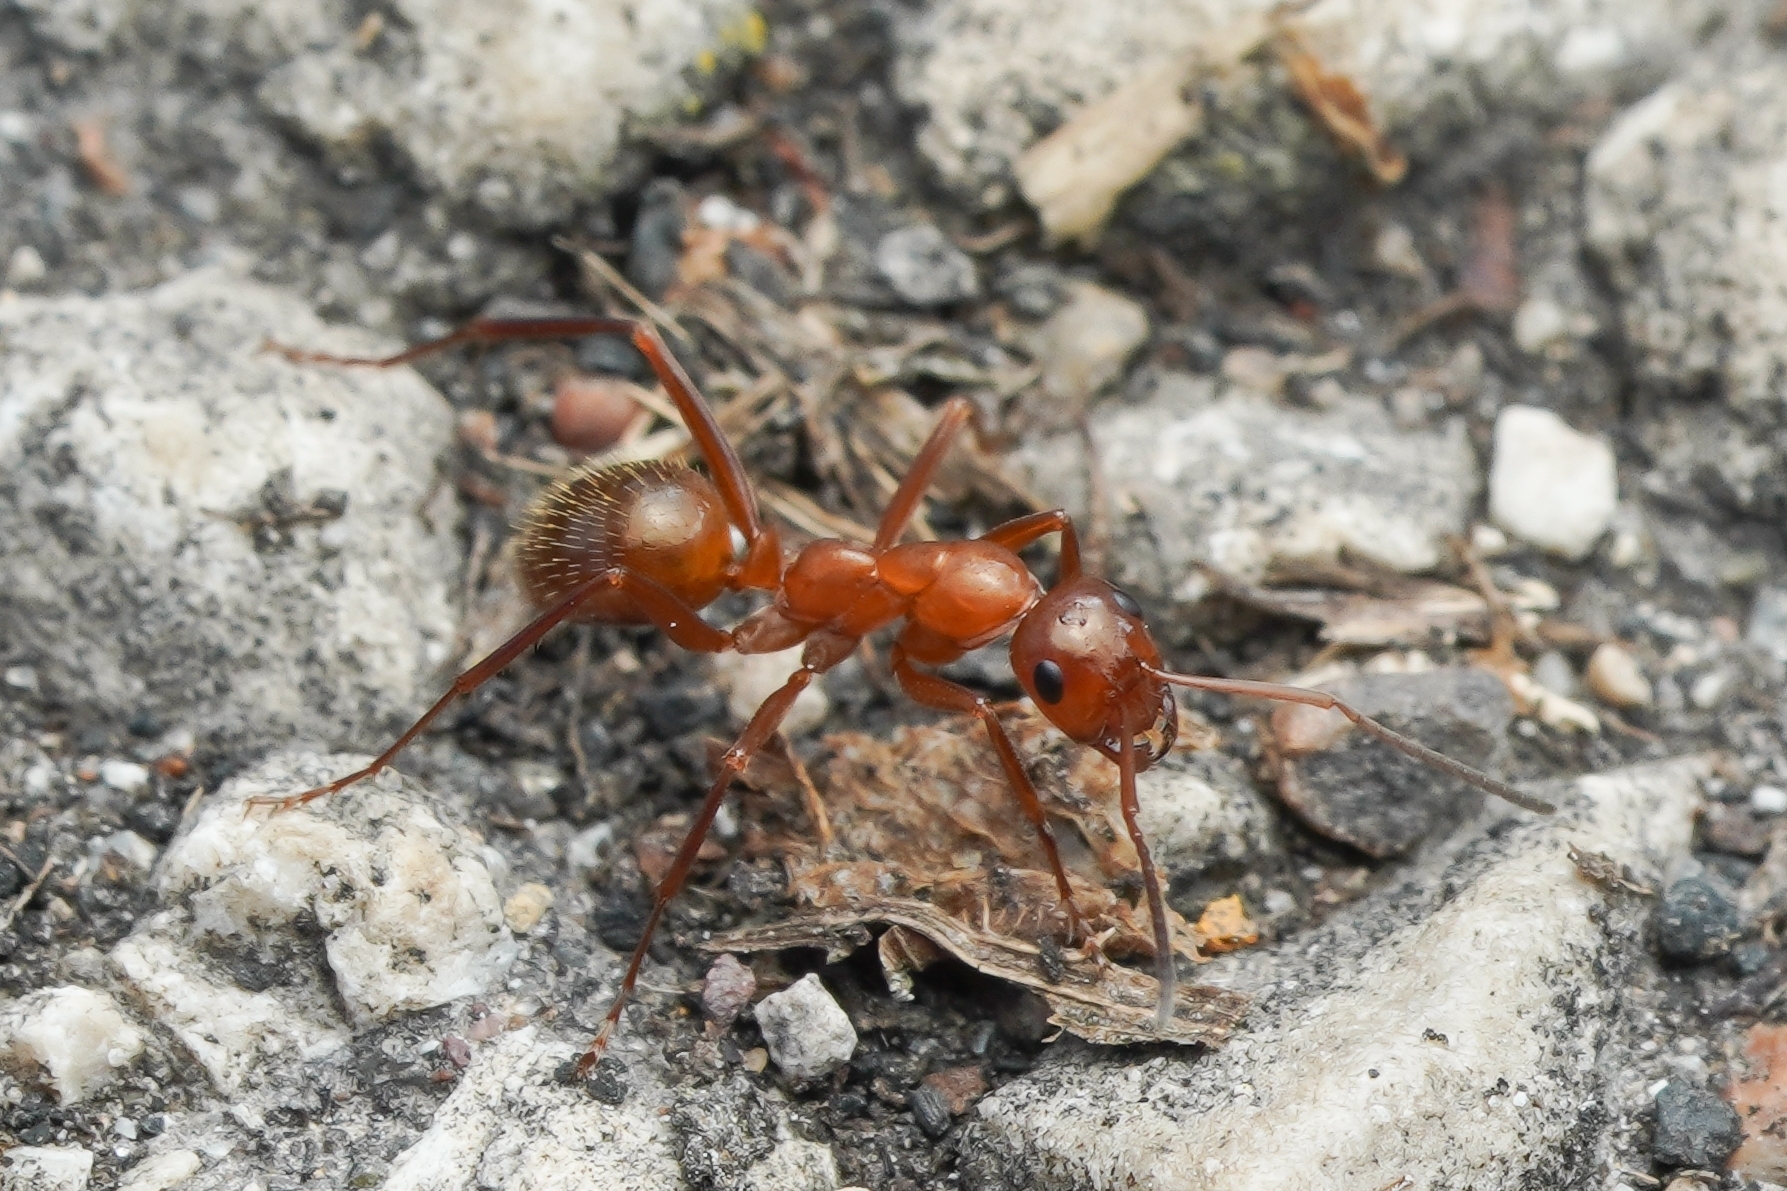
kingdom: Animalia
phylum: Arthropoda
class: Insecta
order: Hymenoptera
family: Formicidae
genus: Formica
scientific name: Formica incerta
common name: Uncertain field ant
